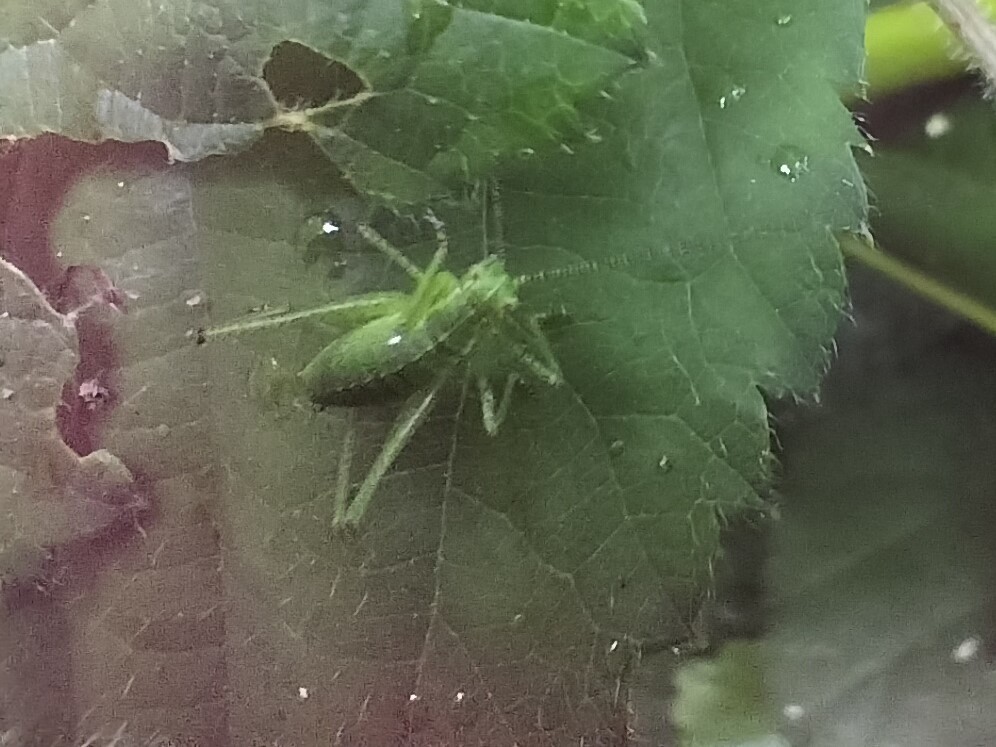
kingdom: Animalia
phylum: Arthropoda
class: Insecta
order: Orthoptera
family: Tettigoniidae
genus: Leptophyes
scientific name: Leptophyes punctatissima
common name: Speckled bush-cricket
